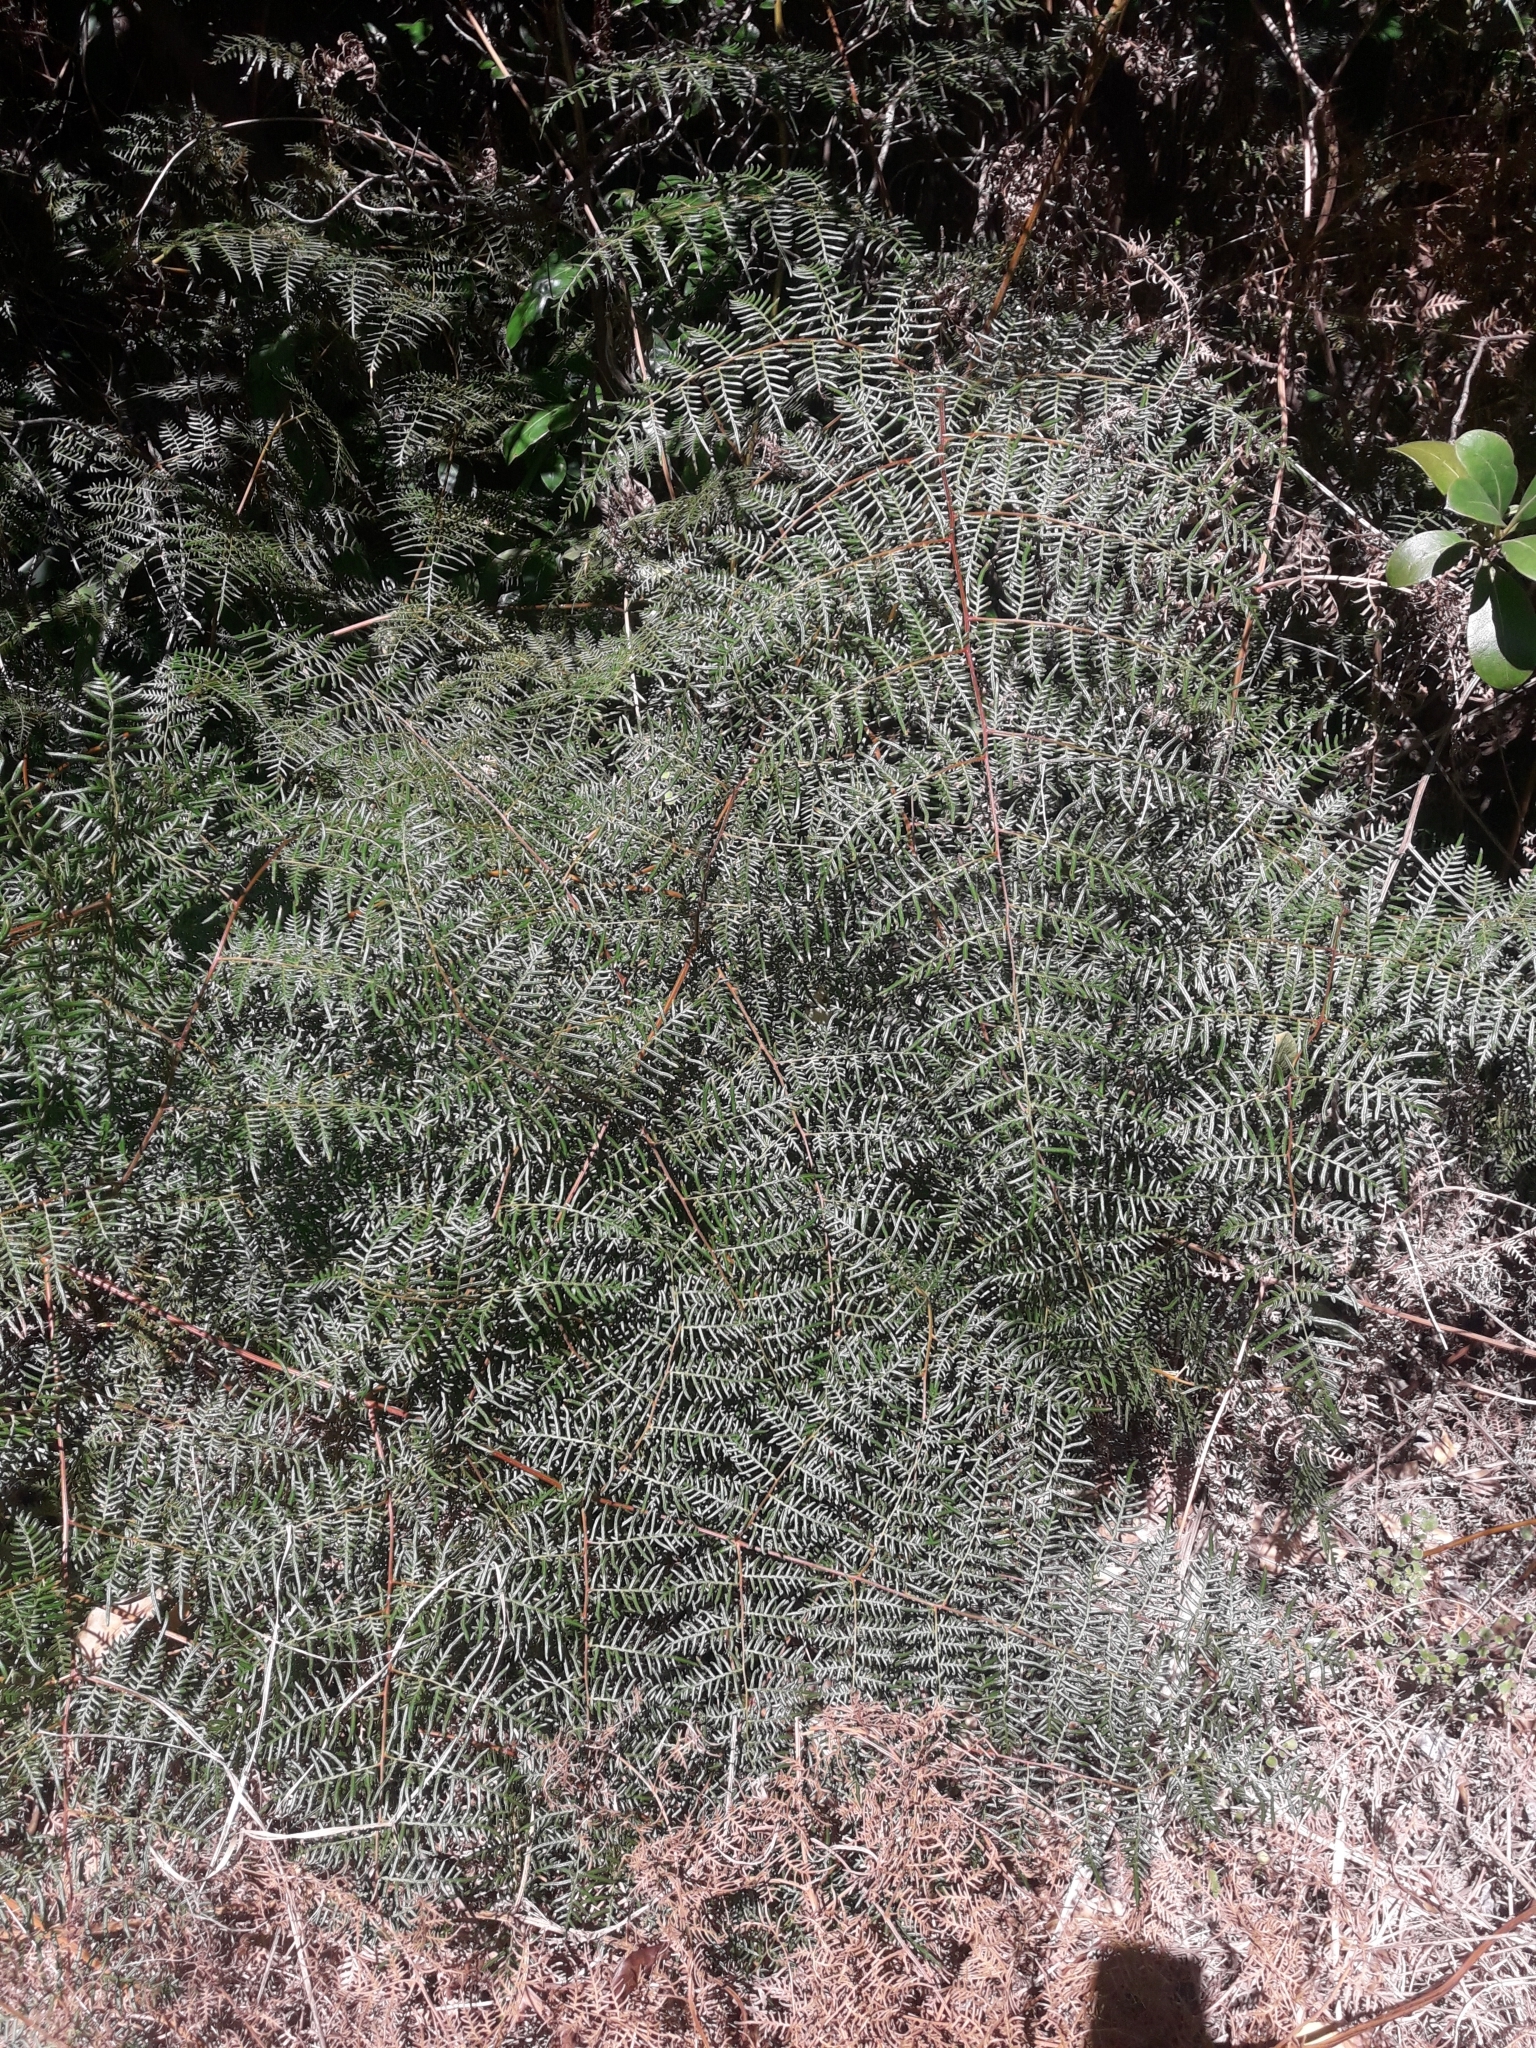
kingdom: Plantae
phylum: Tracheophyta
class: Polypodiopsida
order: Polypodiales
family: Dennstaedtiaceae
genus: Pteridium
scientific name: Pteridium esculentum
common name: Bracken fern
